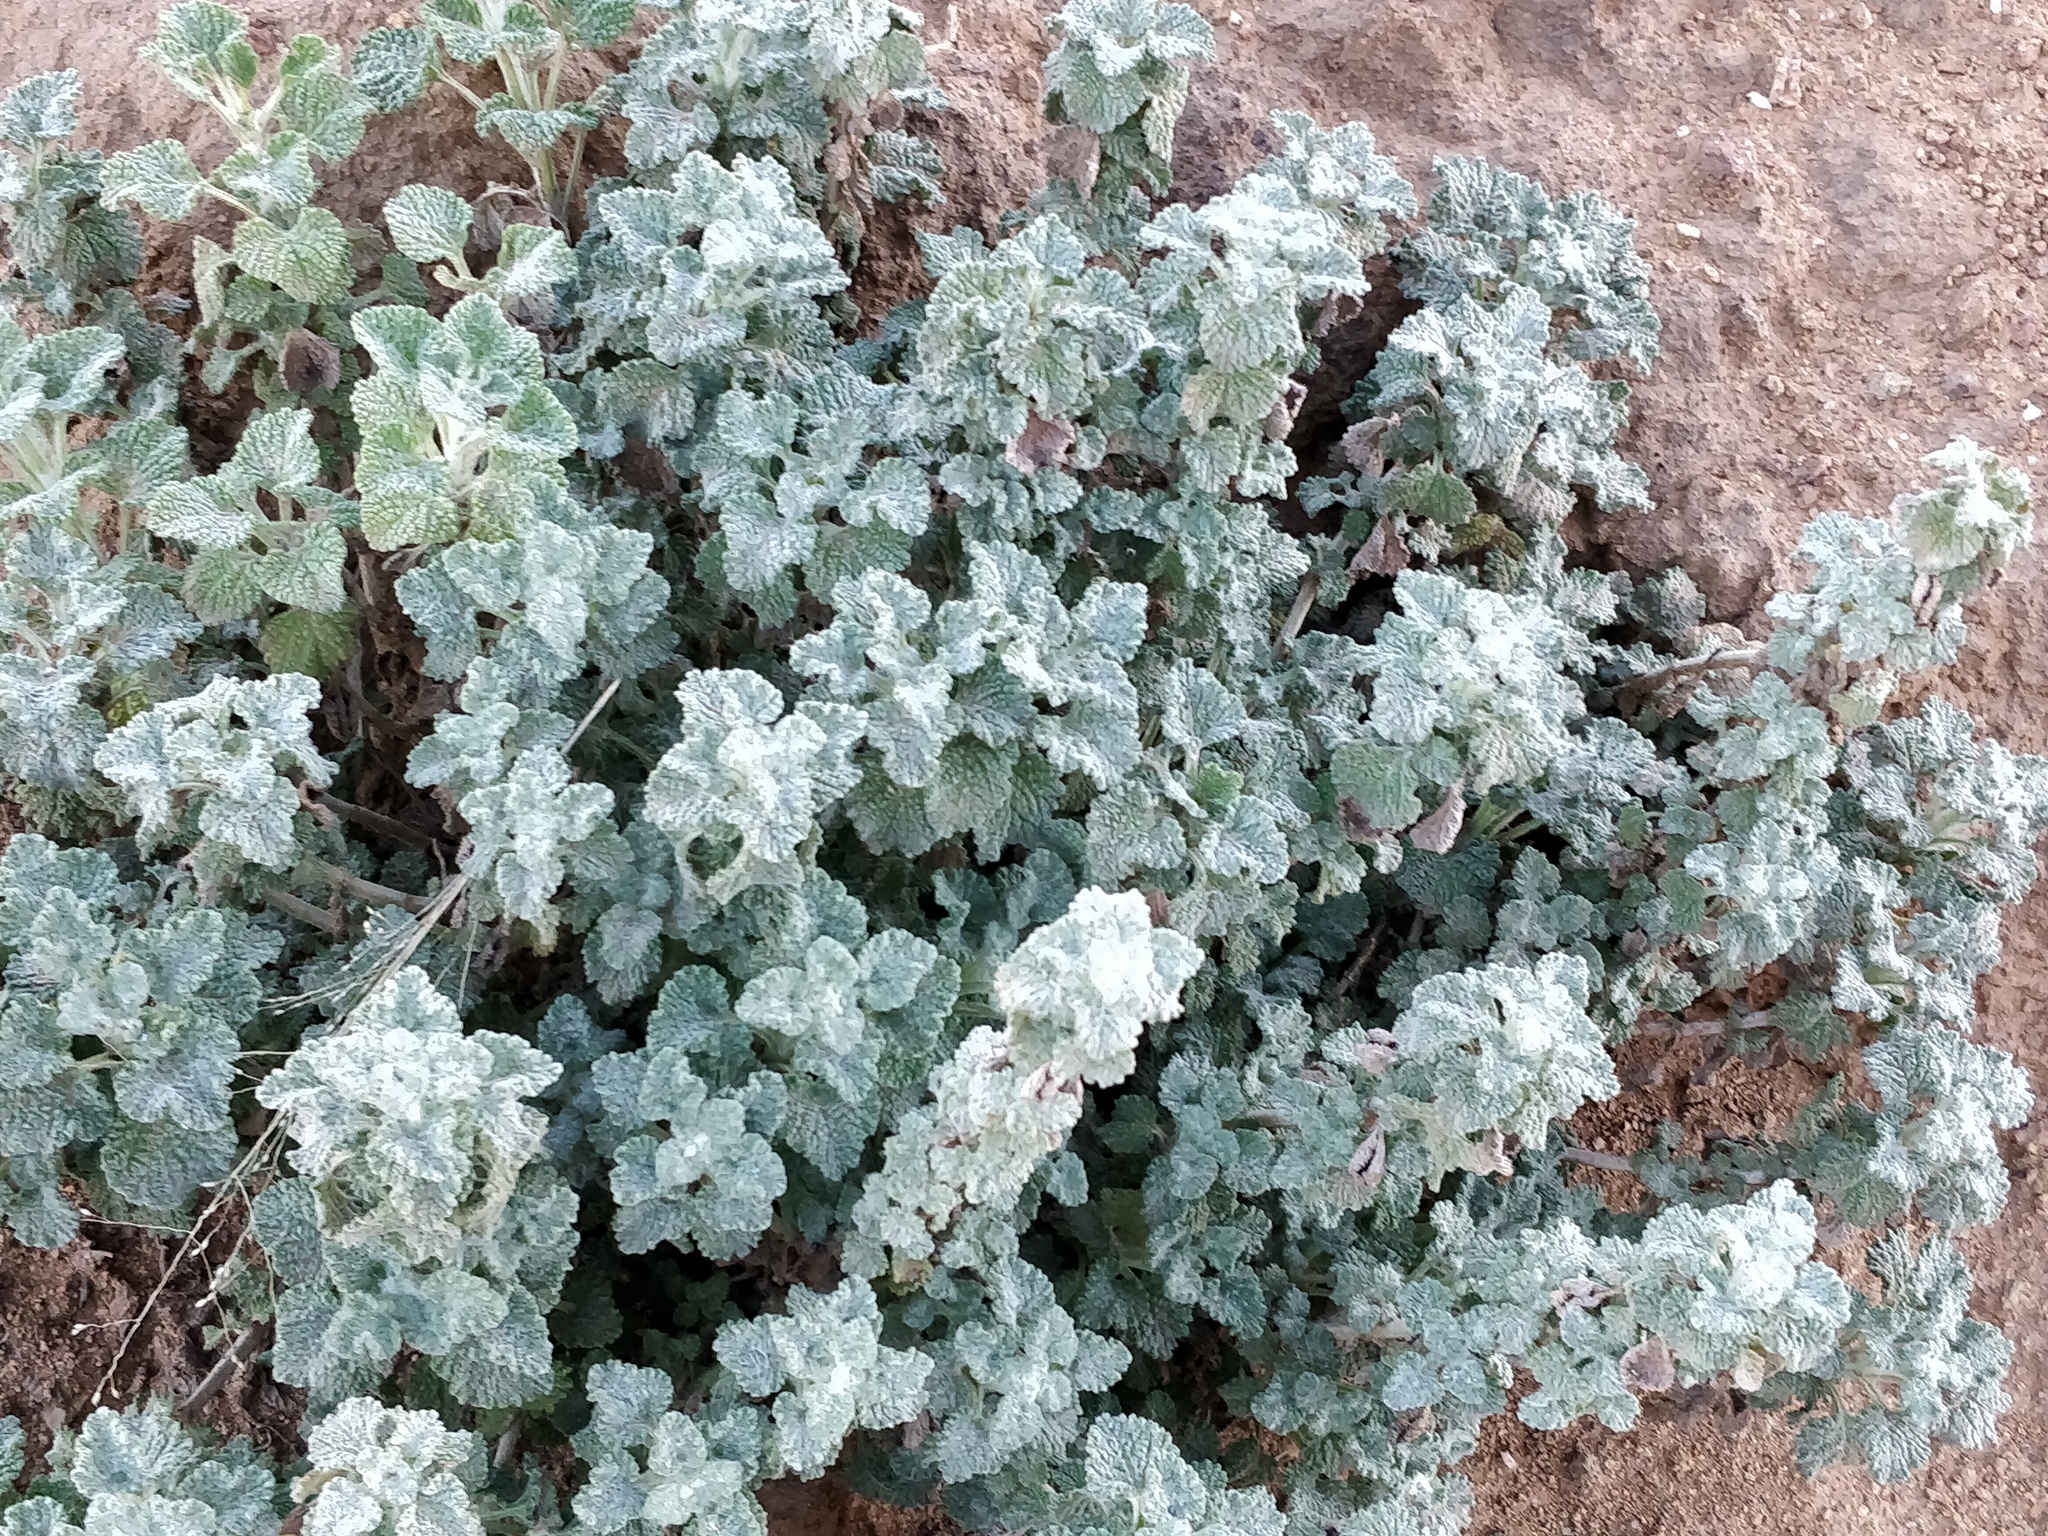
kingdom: Plantae
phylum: Tracheophyta
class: Magnoliopsida
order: Lamiales
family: Lamiaceae
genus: Marrubium
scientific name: Marrubium vulgare
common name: Horehound
